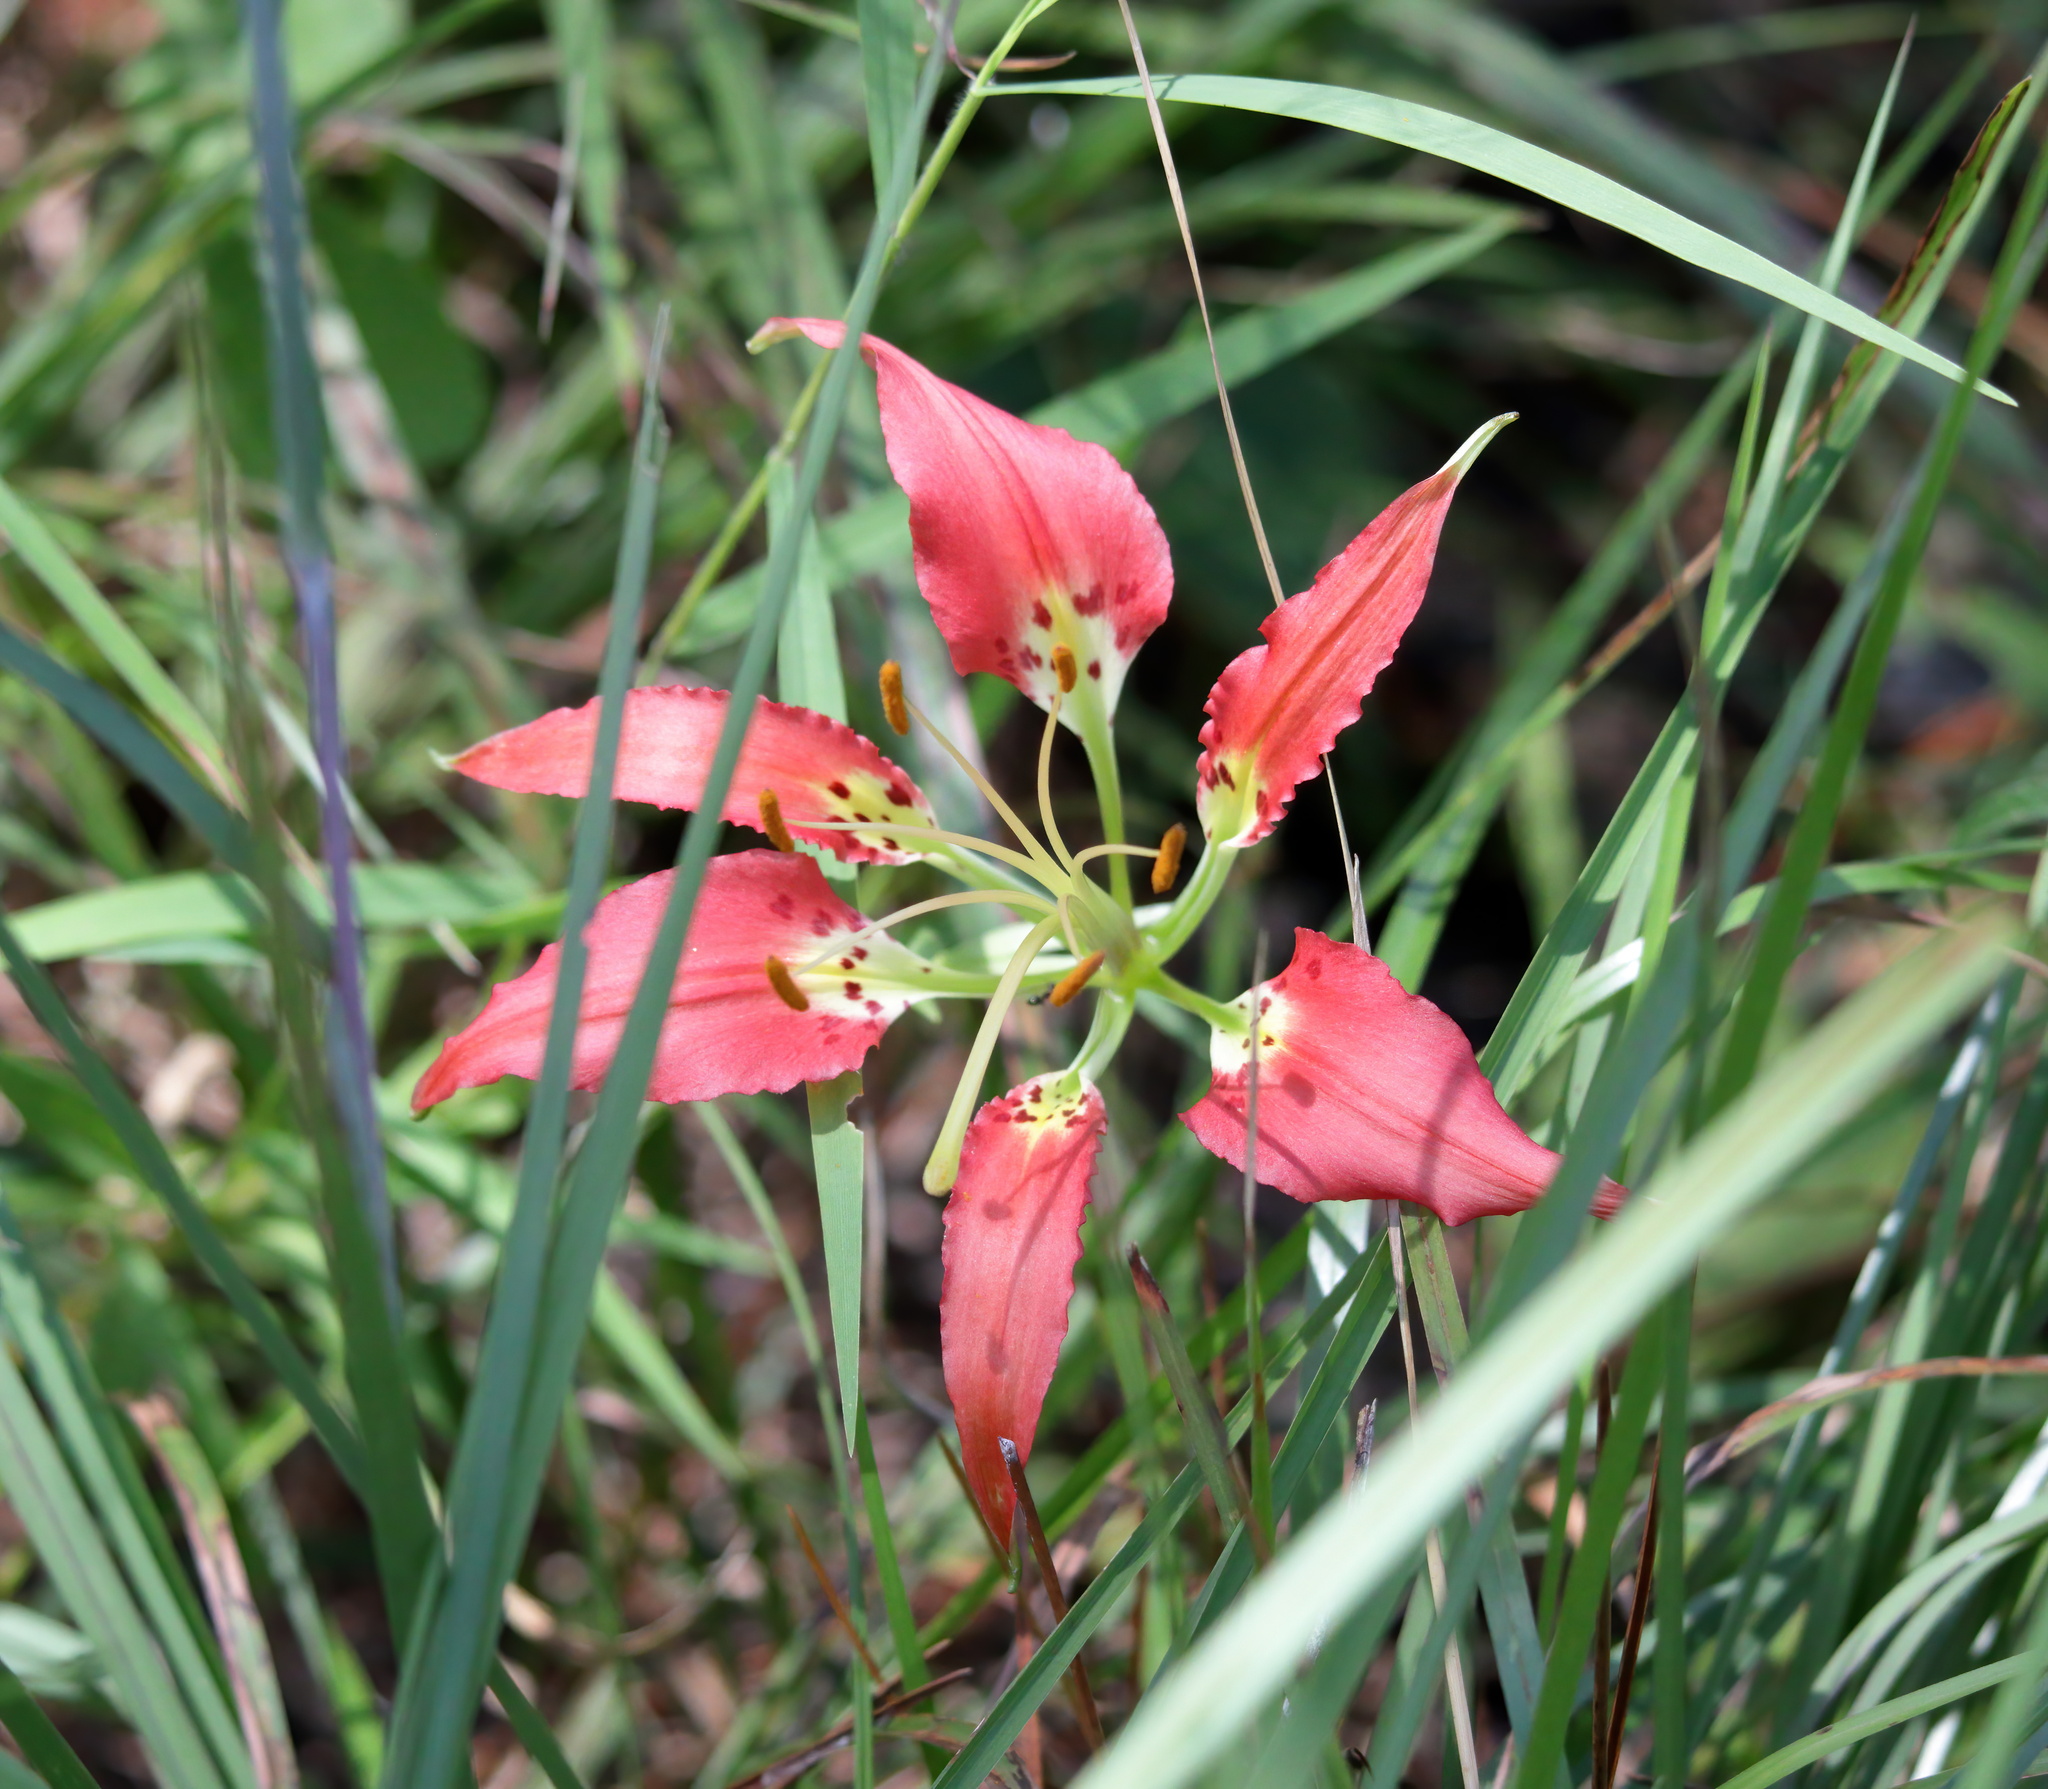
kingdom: Plantae
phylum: Tracheophyta
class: Liliopsida
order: Liliales
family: Liliaceae
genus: Lilium
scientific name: Lilium catesbaei
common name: Catesby's lily
